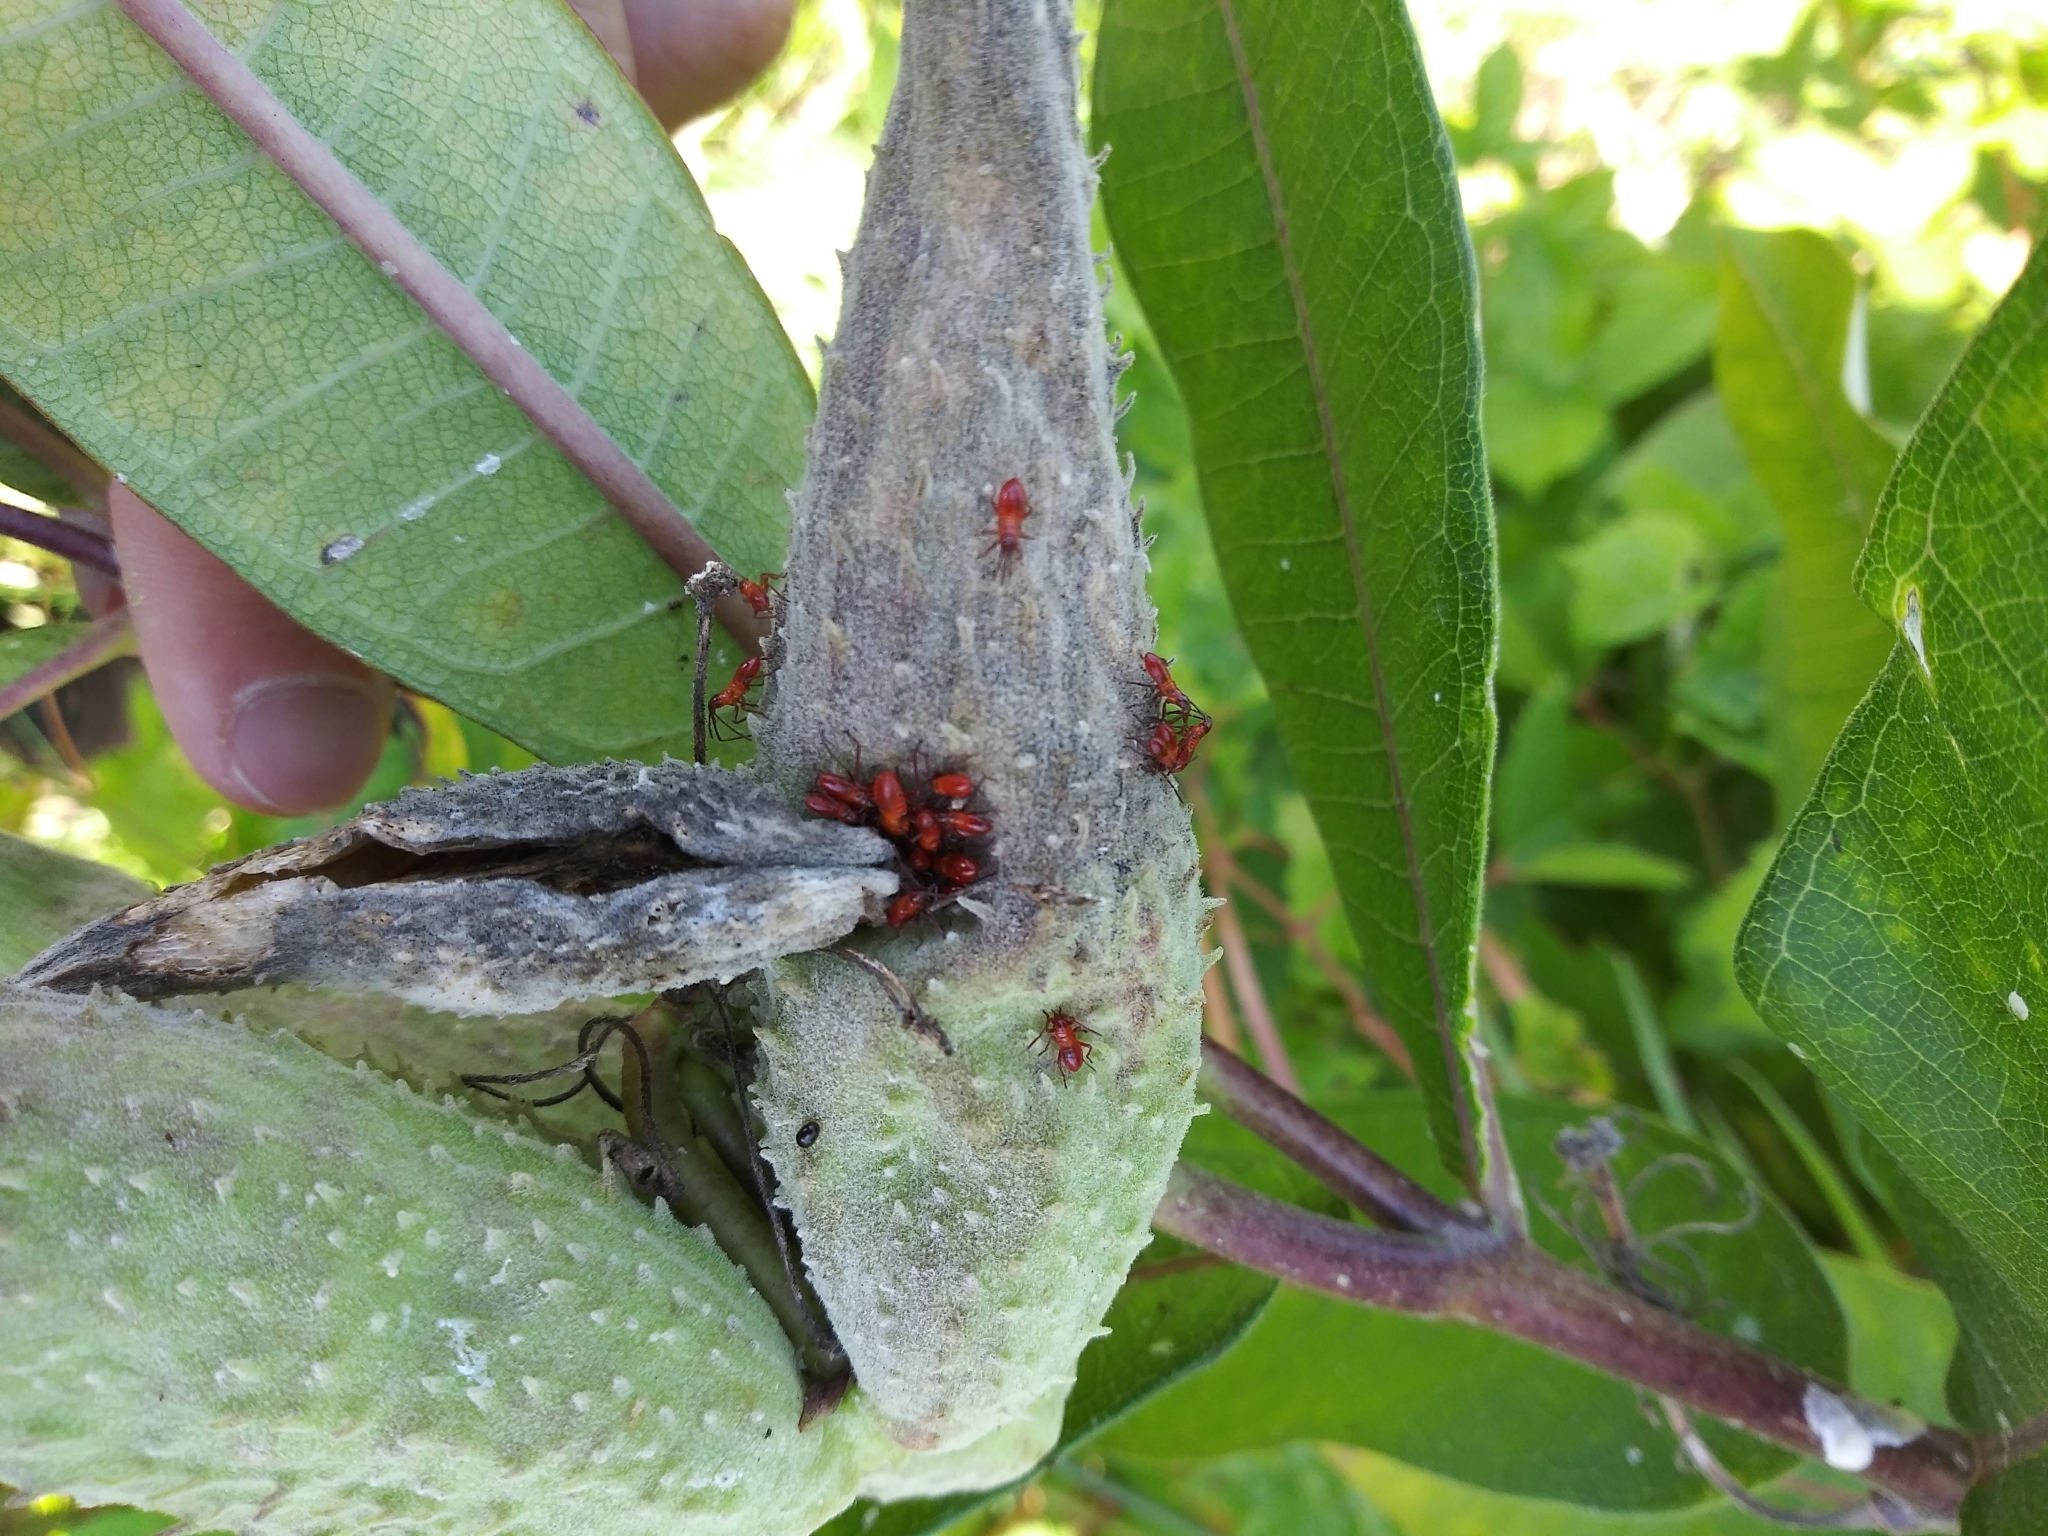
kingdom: Animalia
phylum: Arthropoda
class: Insecta
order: Hemiptera
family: Lygaeidae
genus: Oncopeltus
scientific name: Oncopeltus fasciatus
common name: Large milkweed bug
